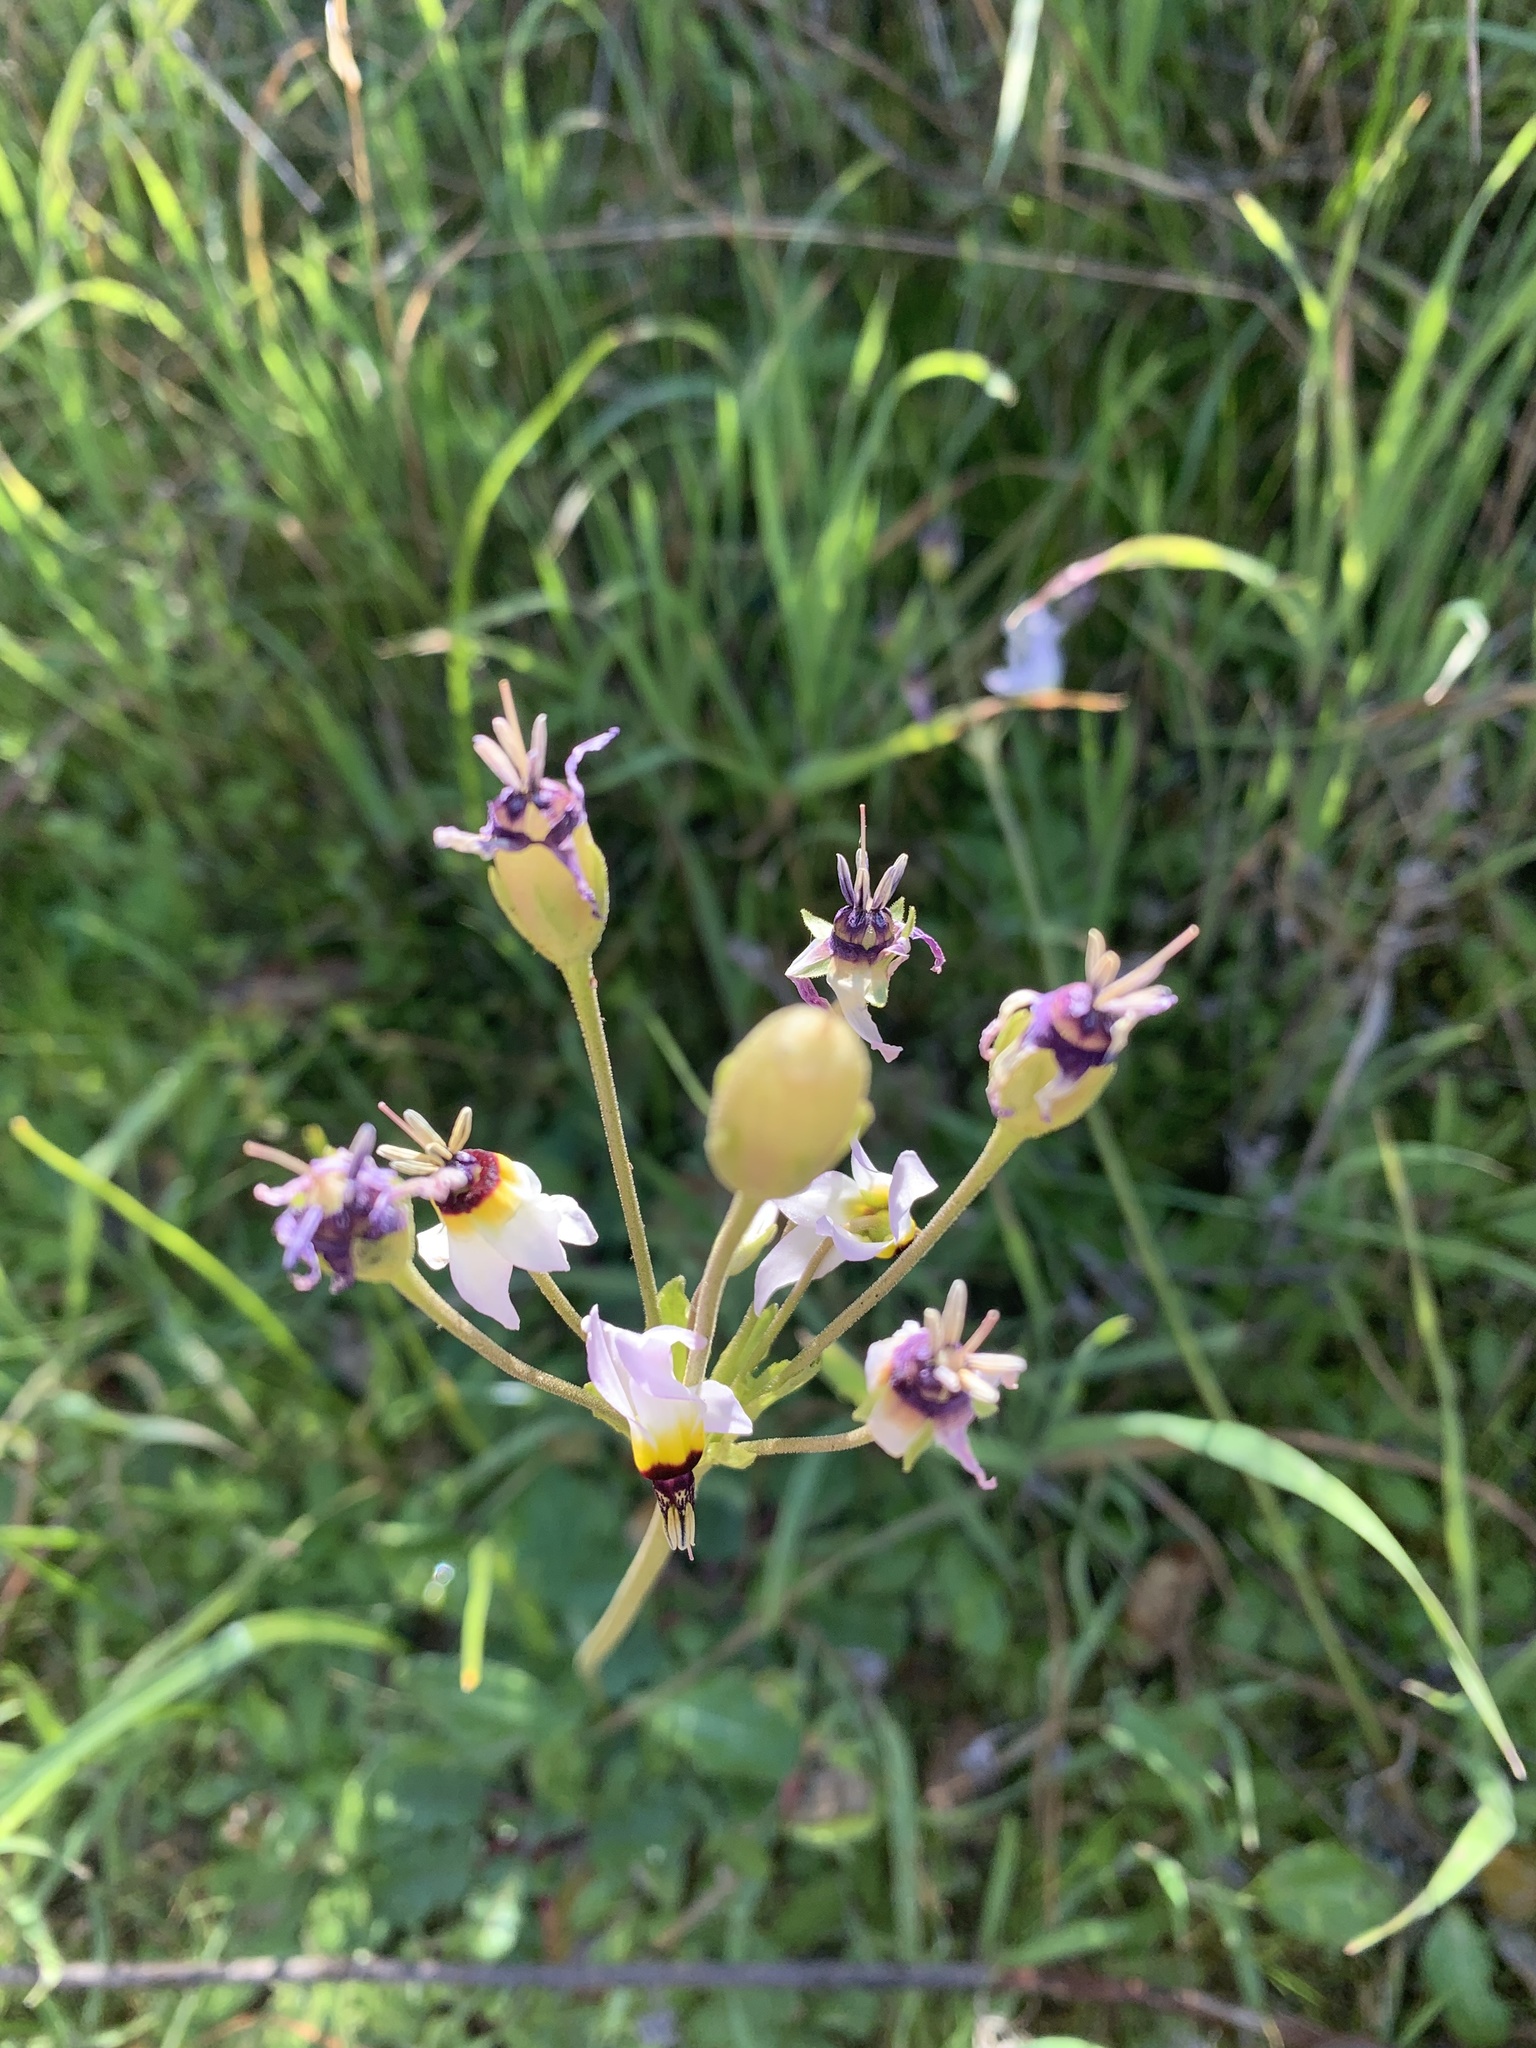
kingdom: Plantae
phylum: Tracheophyta
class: Magnoliopsida
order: Ericales
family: Primulaceae
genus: Dodecatheon
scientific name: Dodecatheon clevelandii
